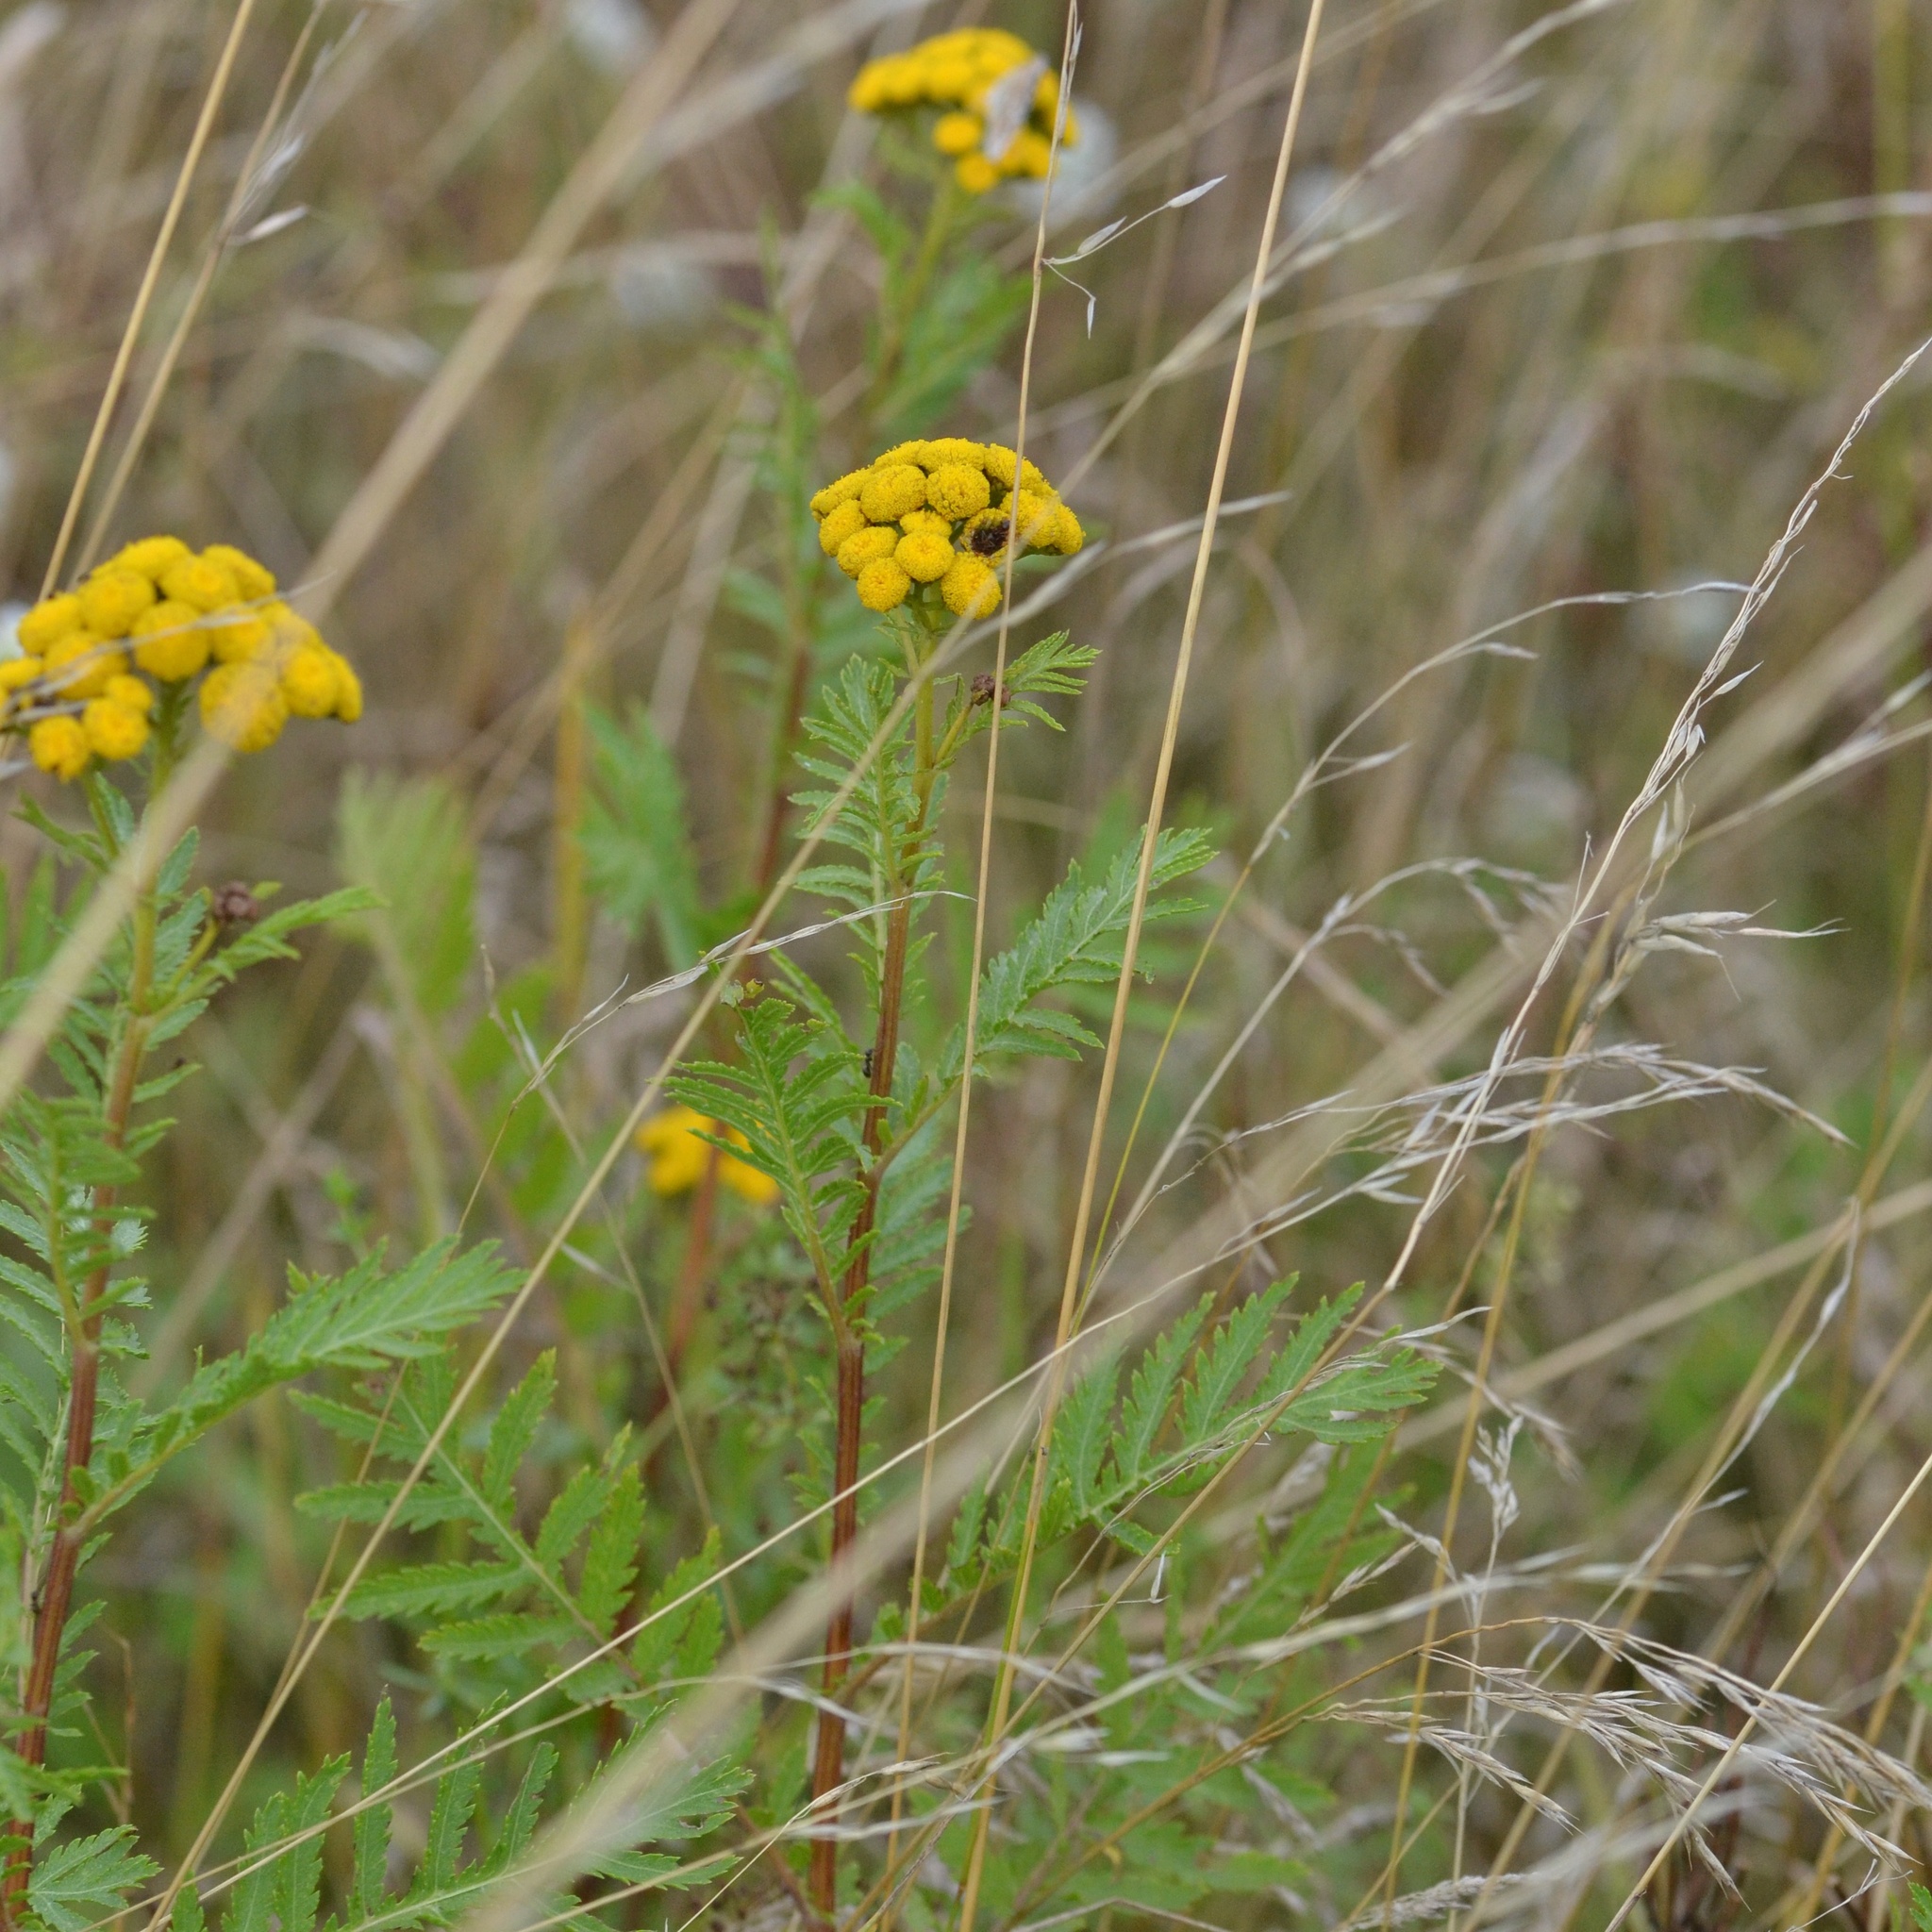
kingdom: Plantae
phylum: Tracheophyta
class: Magnoliopsida
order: Asterales
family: Asteraceae
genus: Tanacetum
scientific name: Tanacetum vulgare
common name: Common tansy
